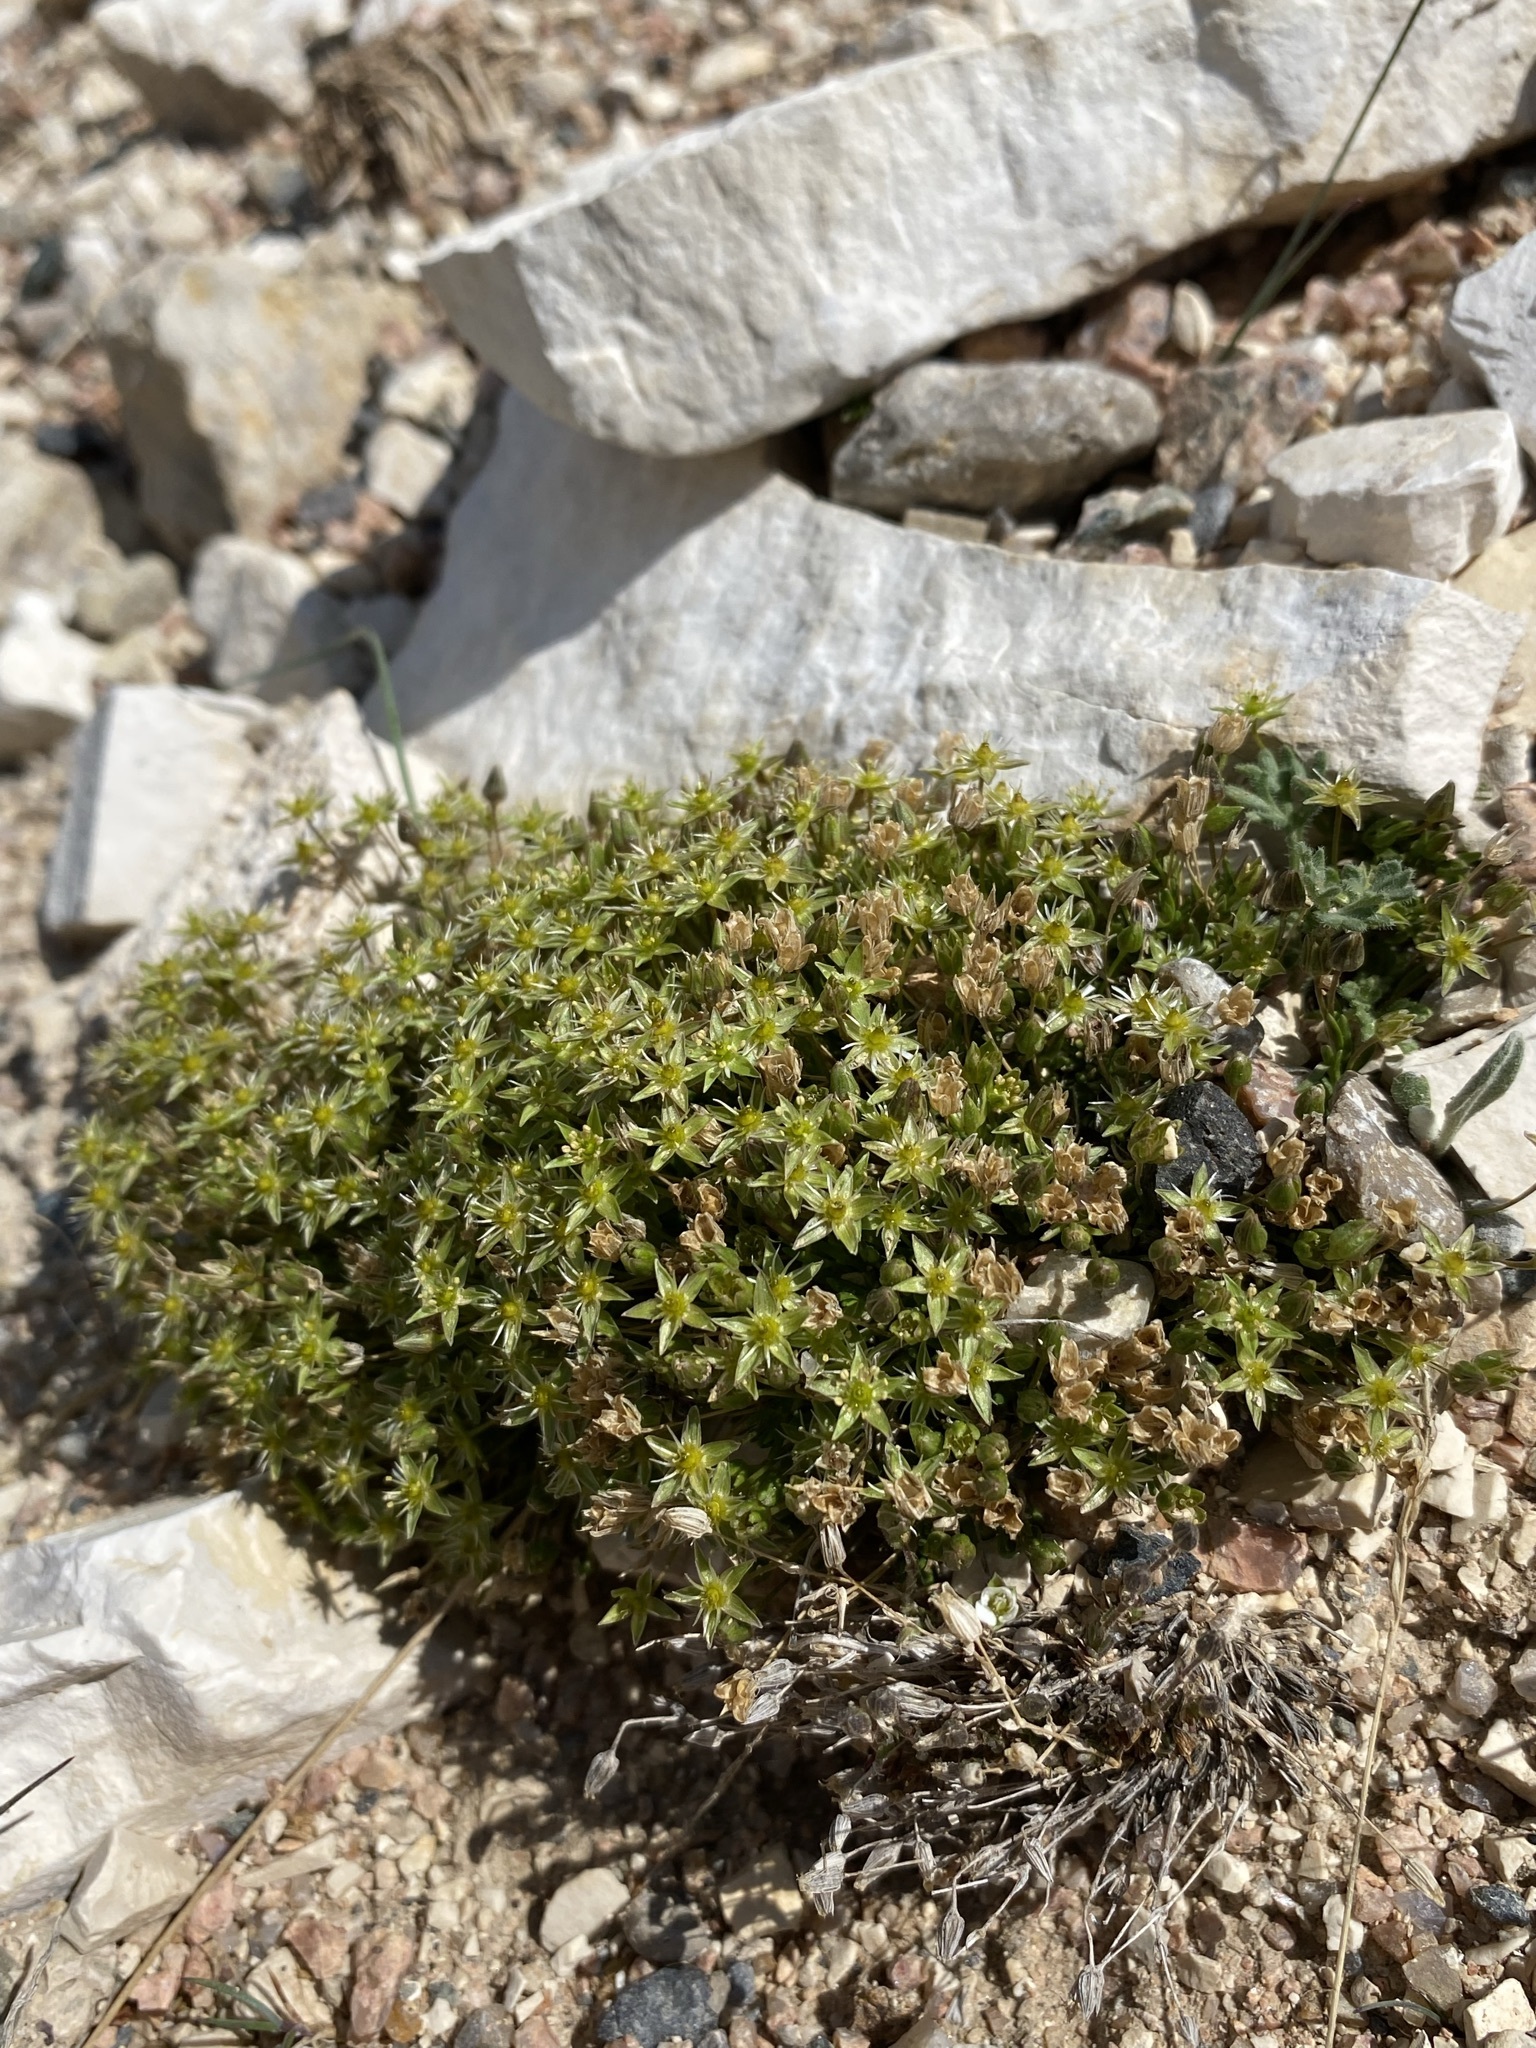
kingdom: Plantae
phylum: Tracheophyta
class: Magnoliopsida
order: Caryophyllales
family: Caryophyllaceae
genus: Sabulina
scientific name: Sabulina austromontana
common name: Columbia stitchwort
